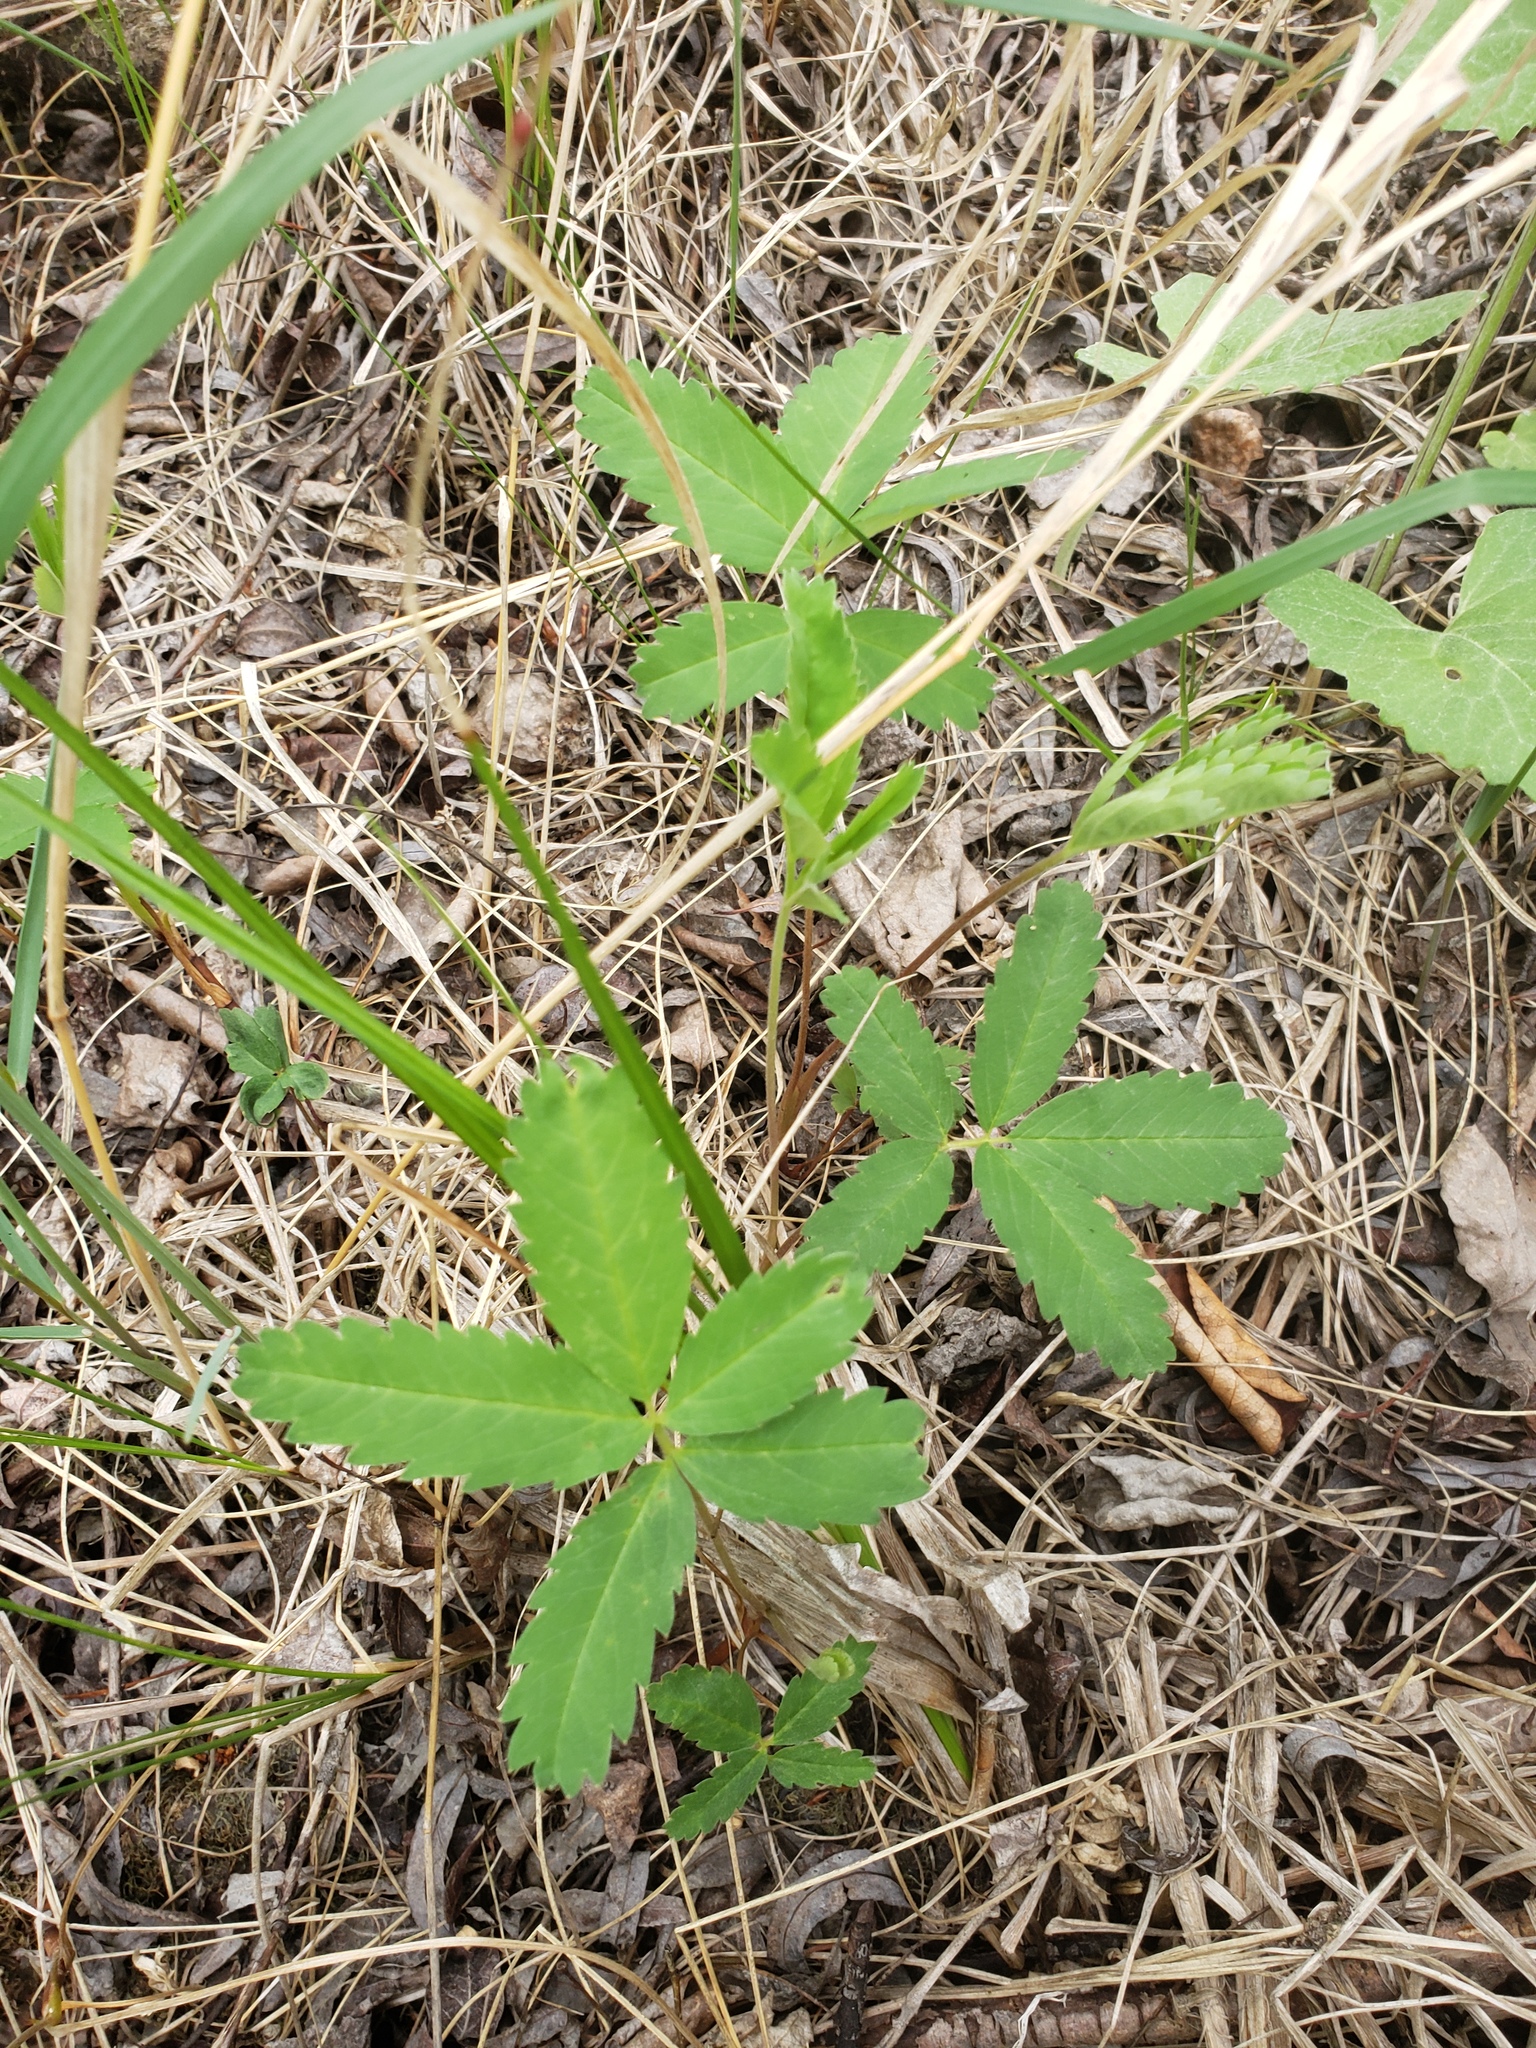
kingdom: Plantae
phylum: Tracheophyta
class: Magnoliopsida
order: Rosales
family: Rosaceae
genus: Comarum
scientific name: Comarum palustre
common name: Marsh cinquefoil
